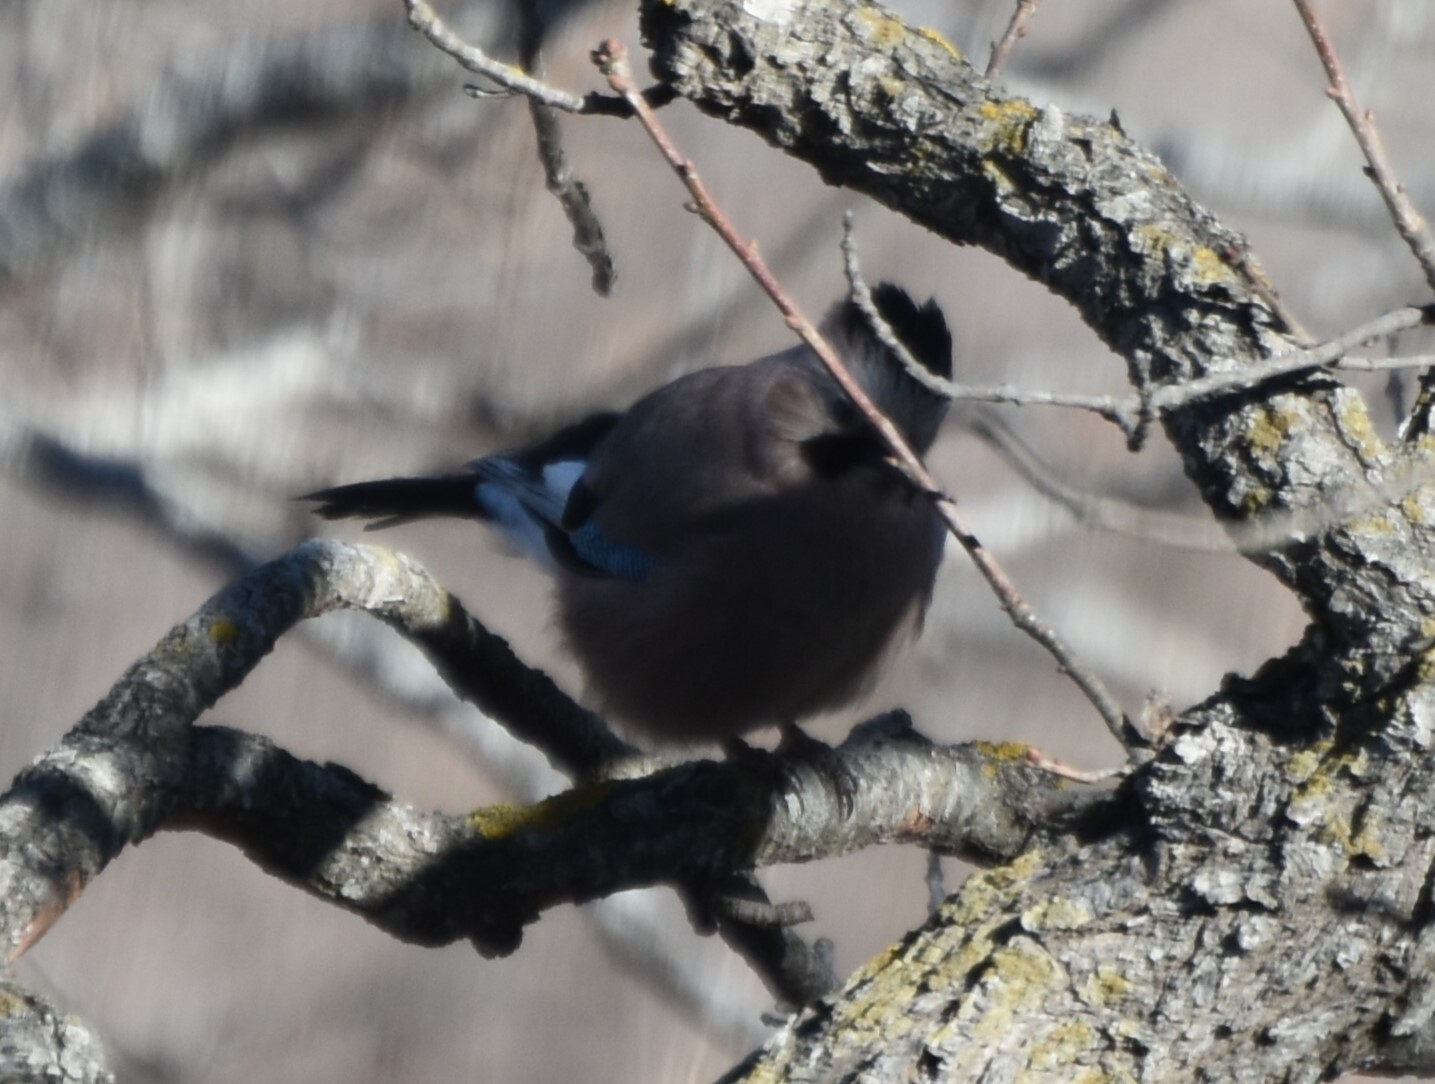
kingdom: Animalia
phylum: Chordata
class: Aves
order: Passeriformes
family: Corvidae
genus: Garrulus
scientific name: Garrulus glandarius
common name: Eurasian jay
